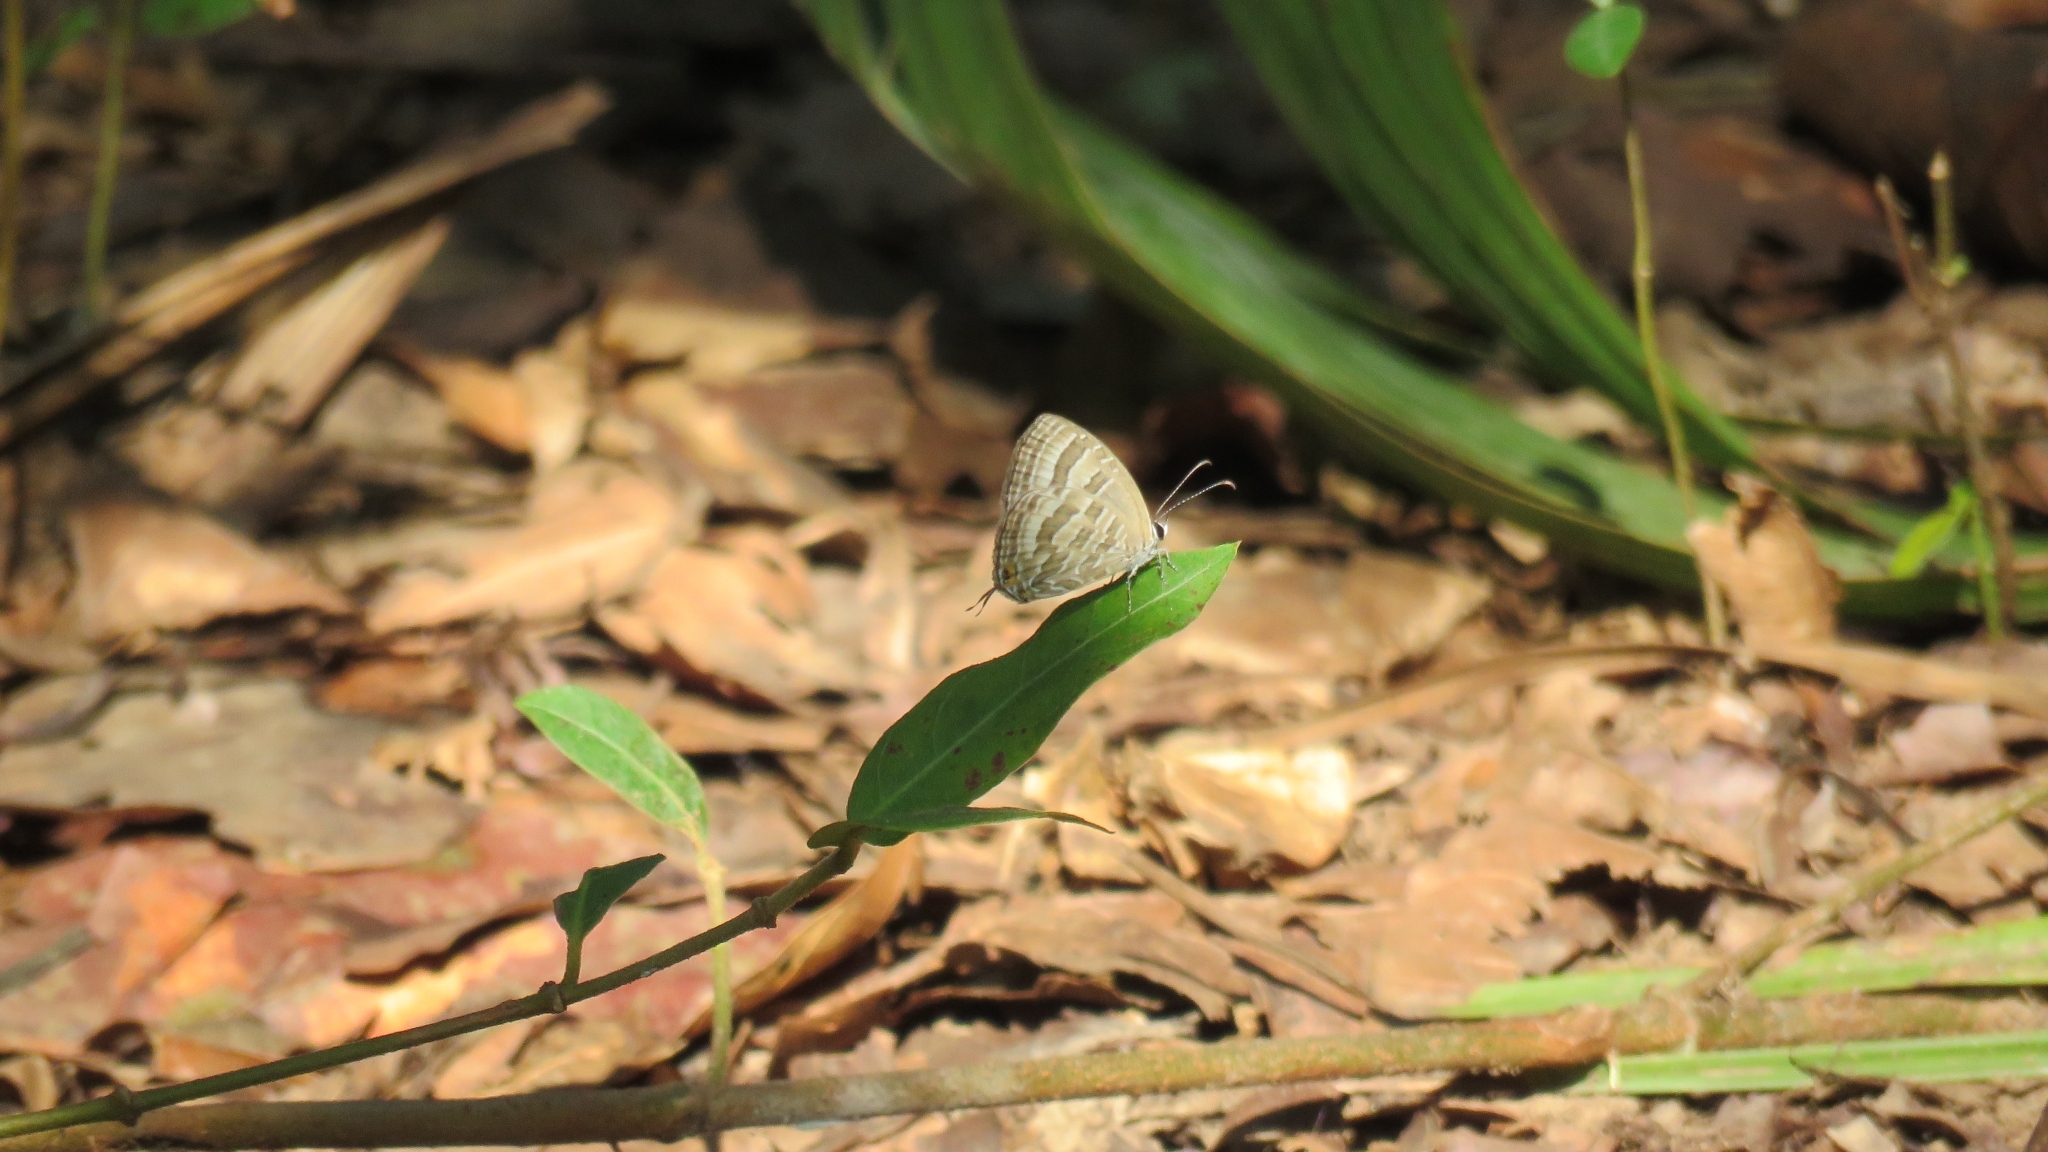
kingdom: Animalia
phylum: Arthropoda
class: Insecta
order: Lepidoptera
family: Lycaenidae
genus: Jamides
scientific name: Jamides celeno
